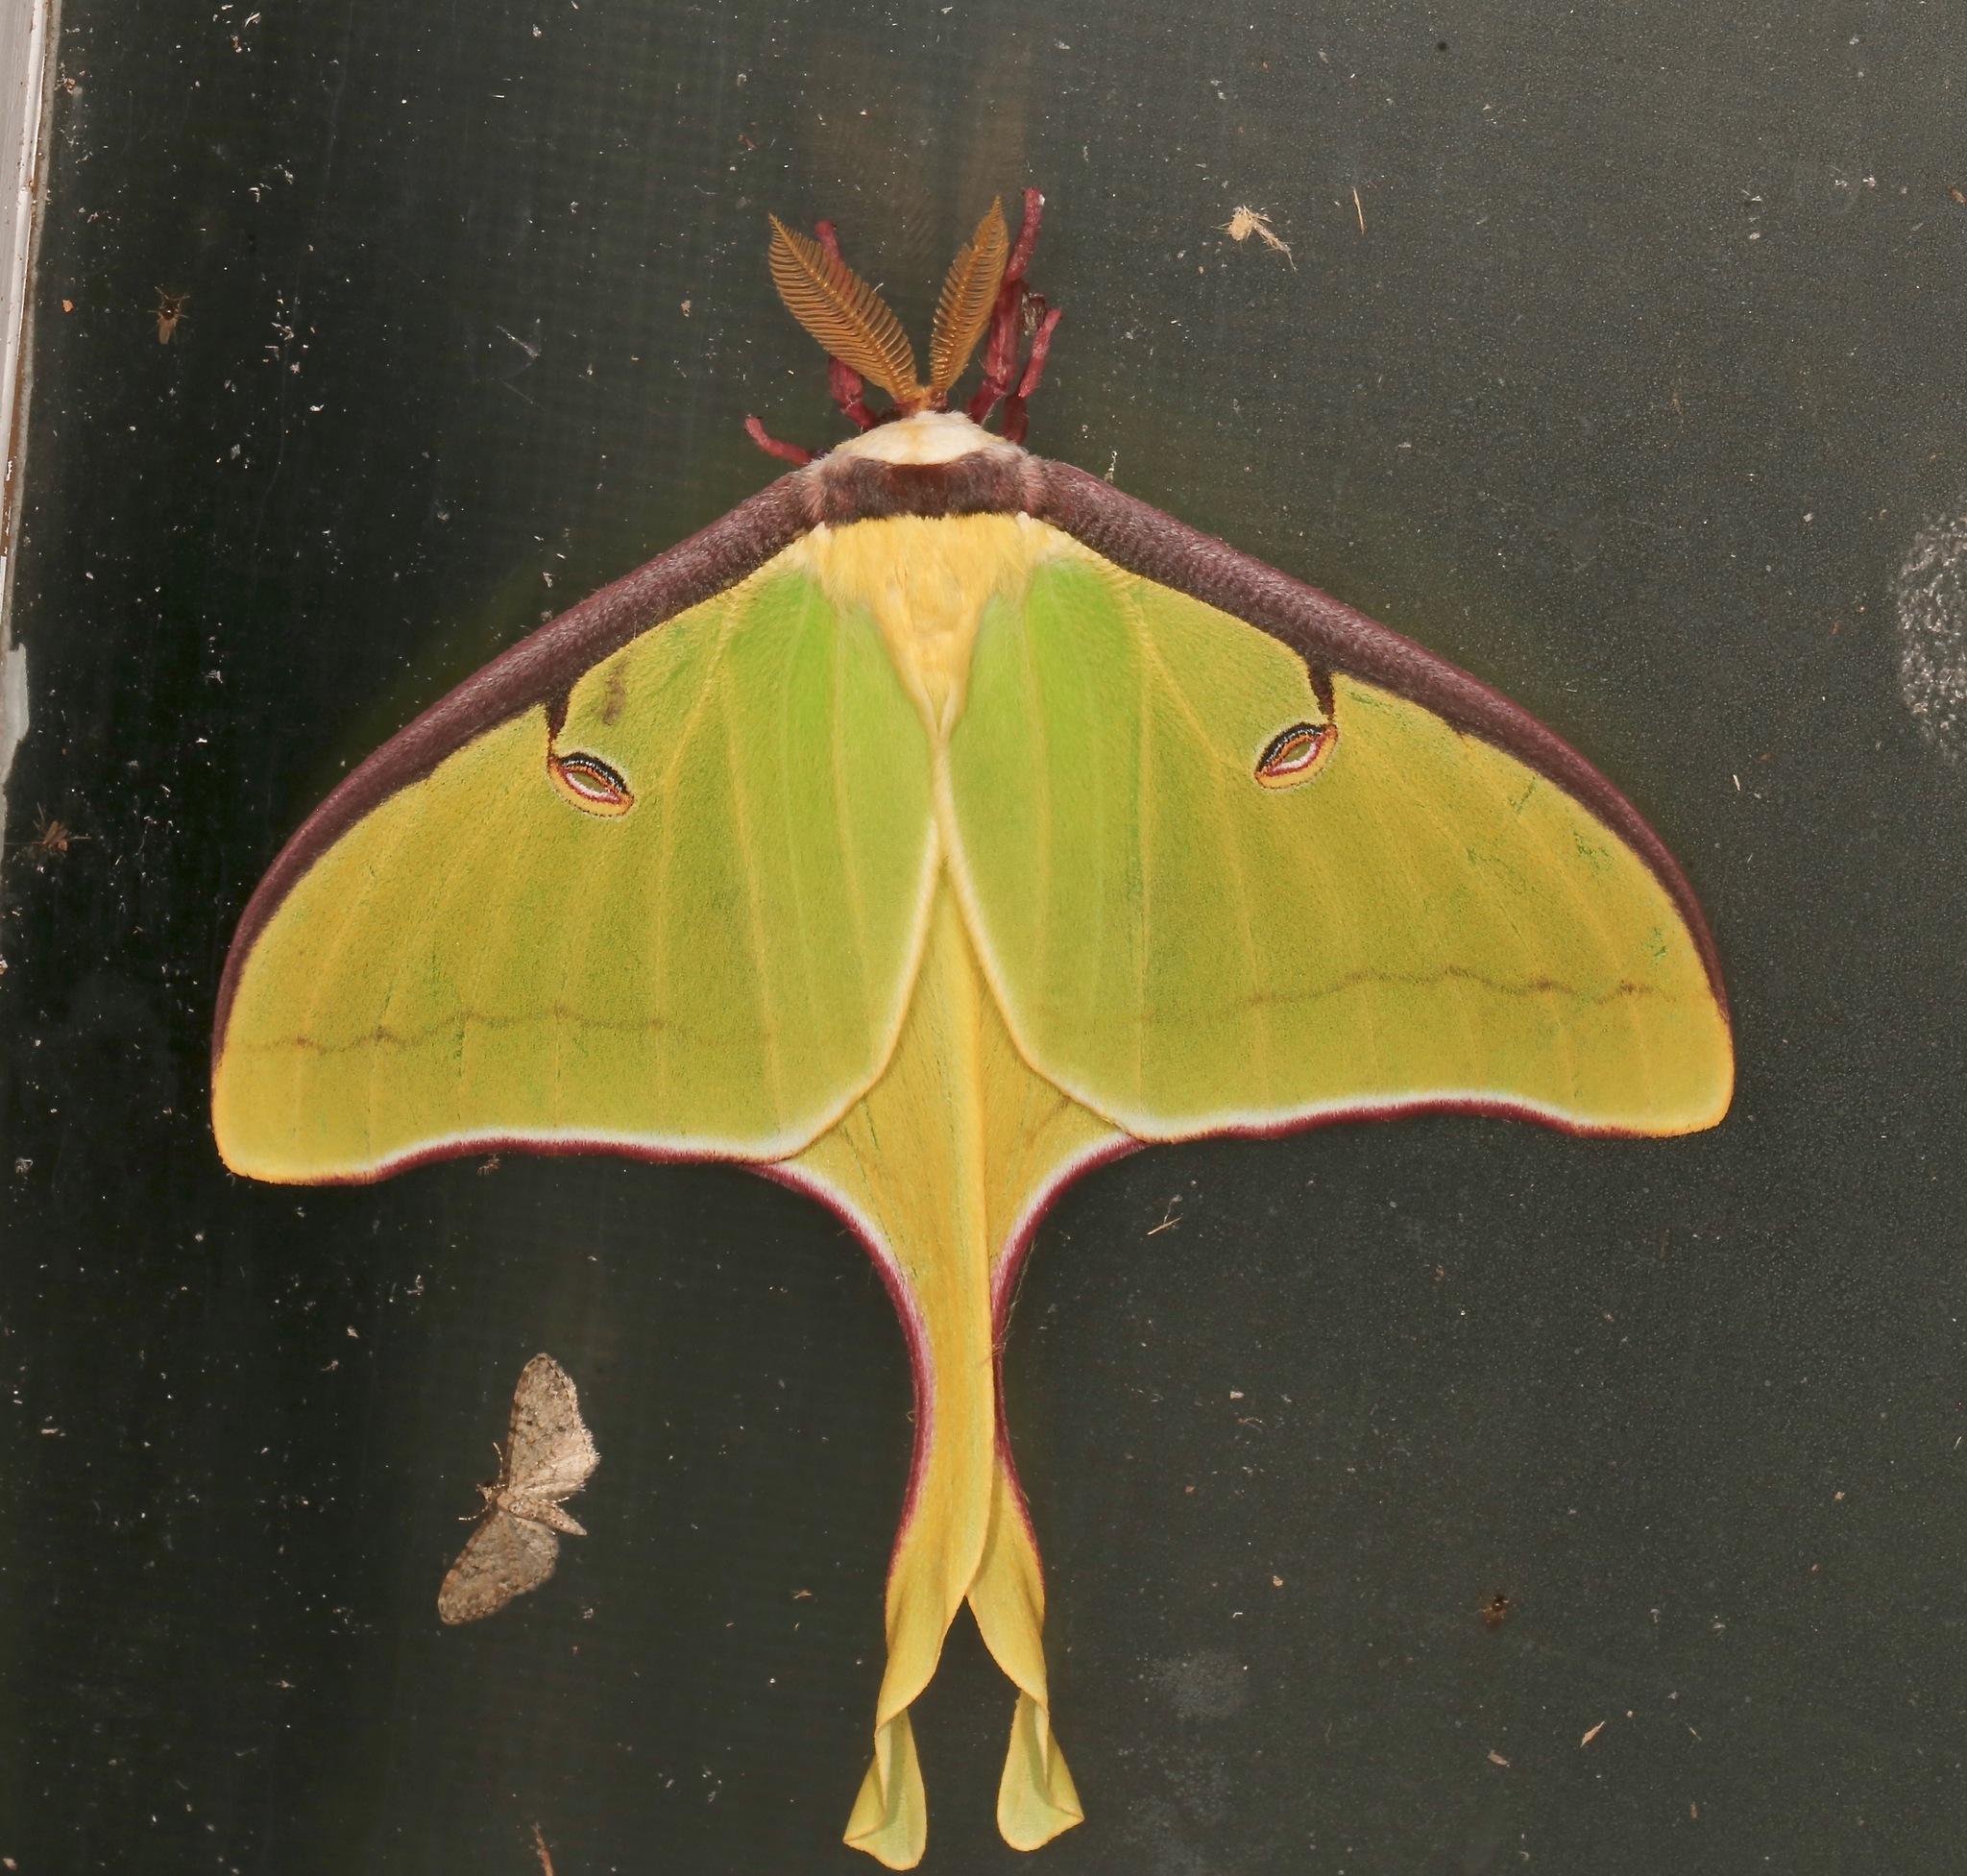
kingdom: Animalia
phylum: Arthropoda
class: Insecta
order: Lepidoptera
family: Saturniidae
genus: Actias
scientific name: Actias luna
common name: Luna moth
